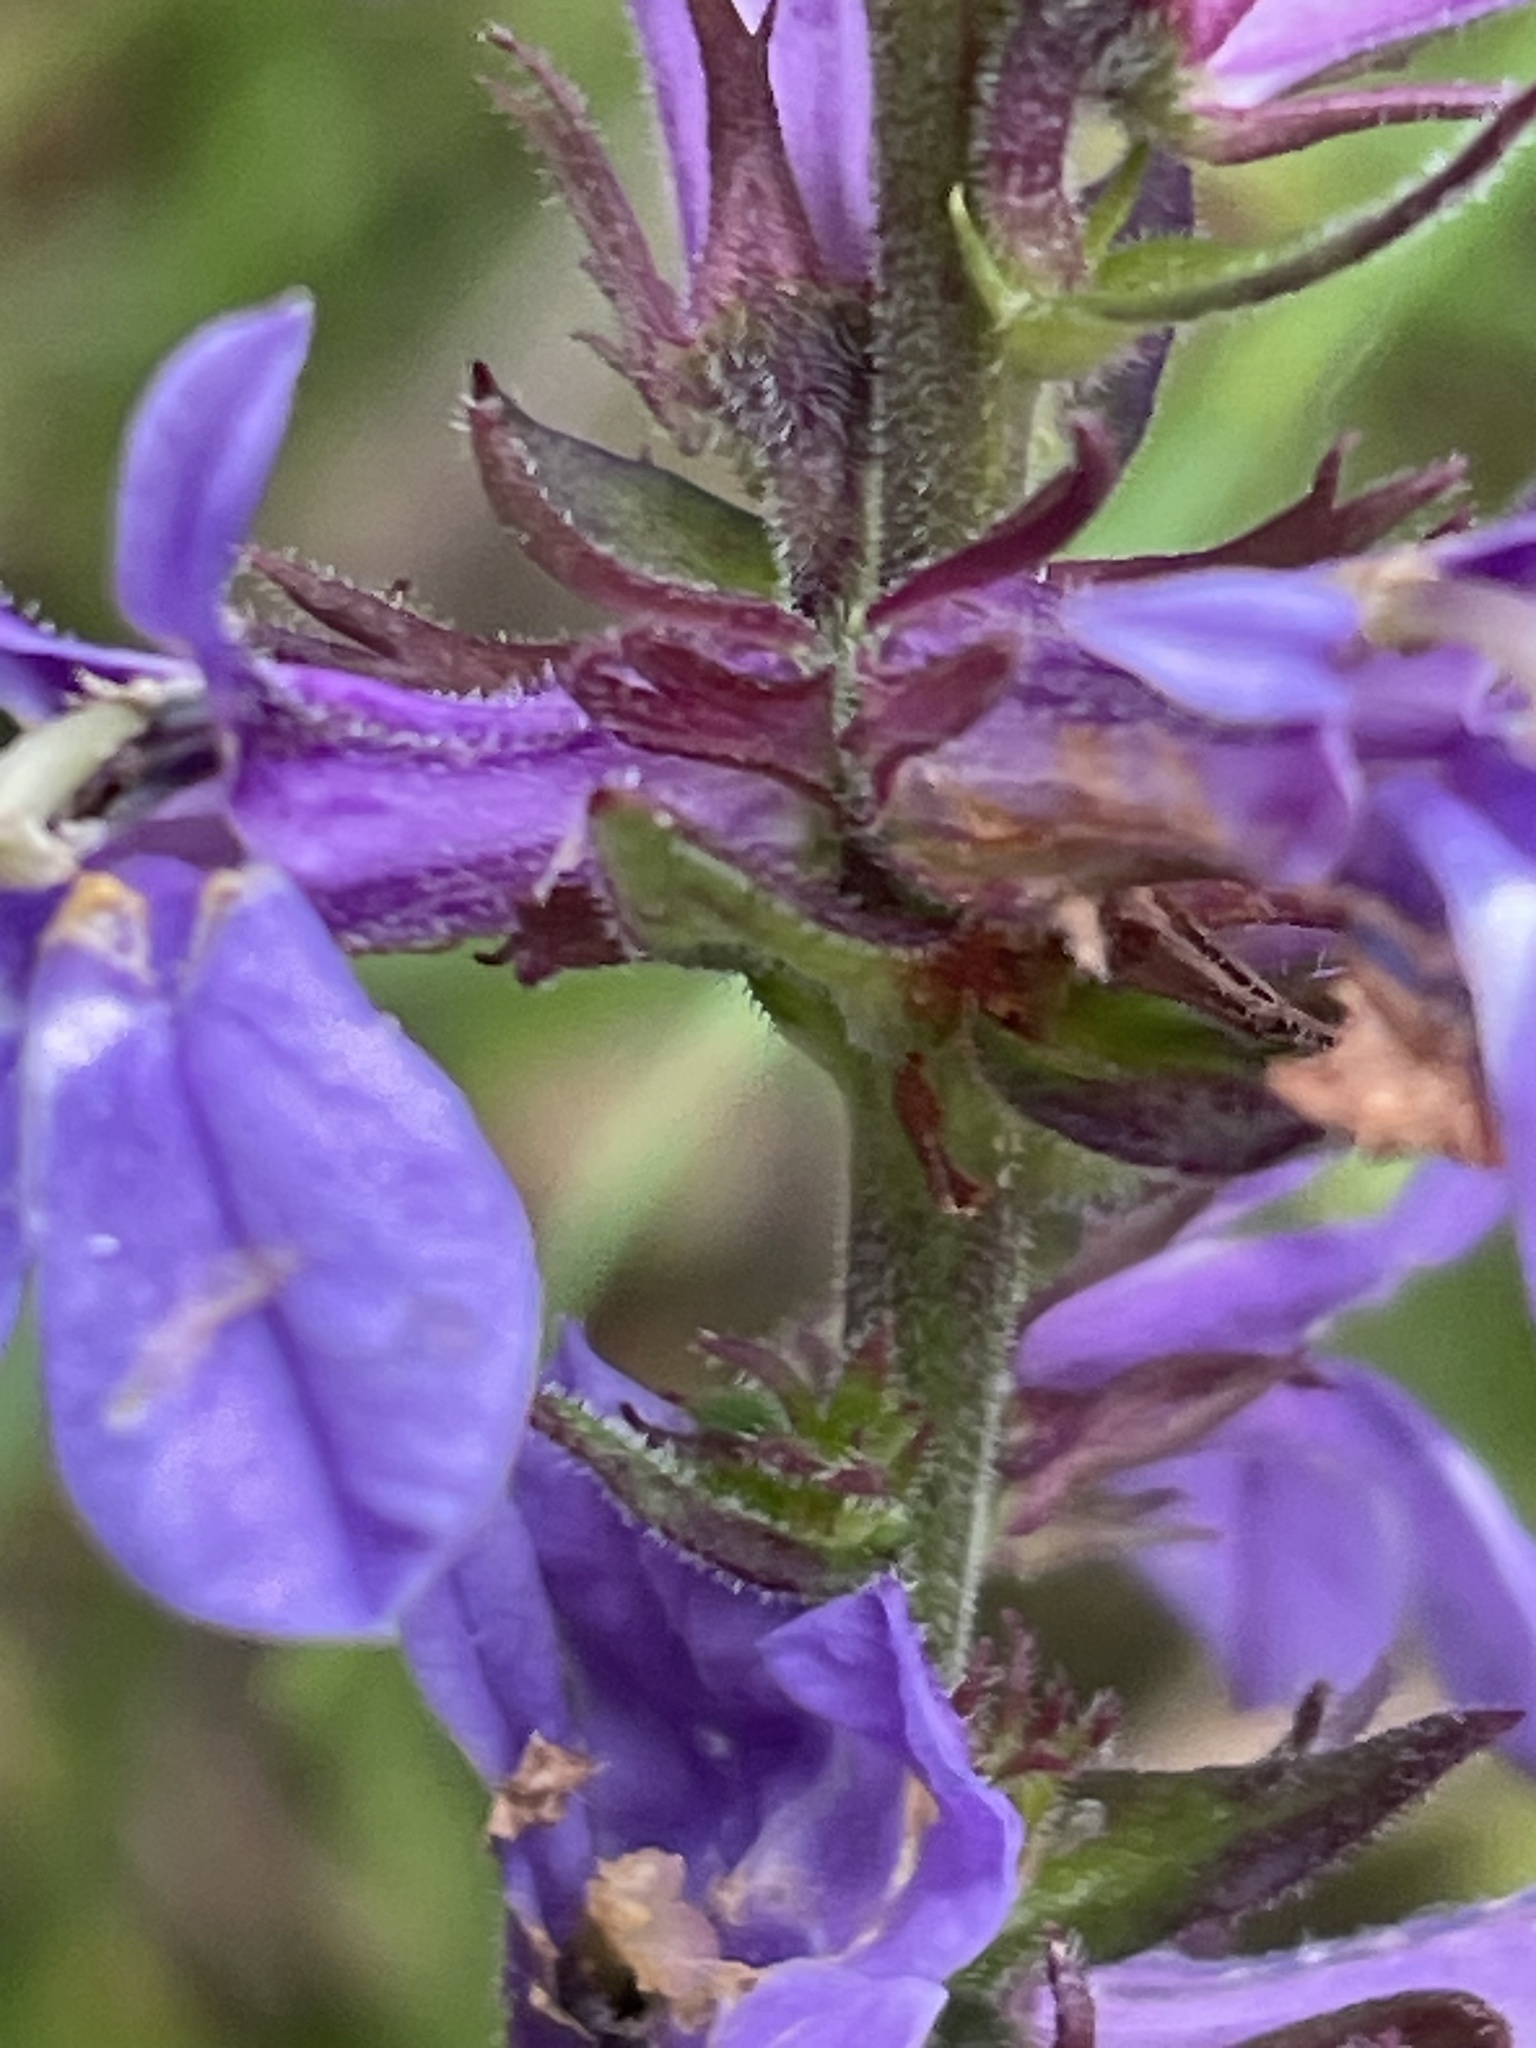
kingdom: Plantae
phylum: Tracheophyta
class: Magnoliopsida
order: Asterales
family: Campanulaceae
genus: Lobelia
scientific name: Lobelia puberula
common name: Purple dewdrop
